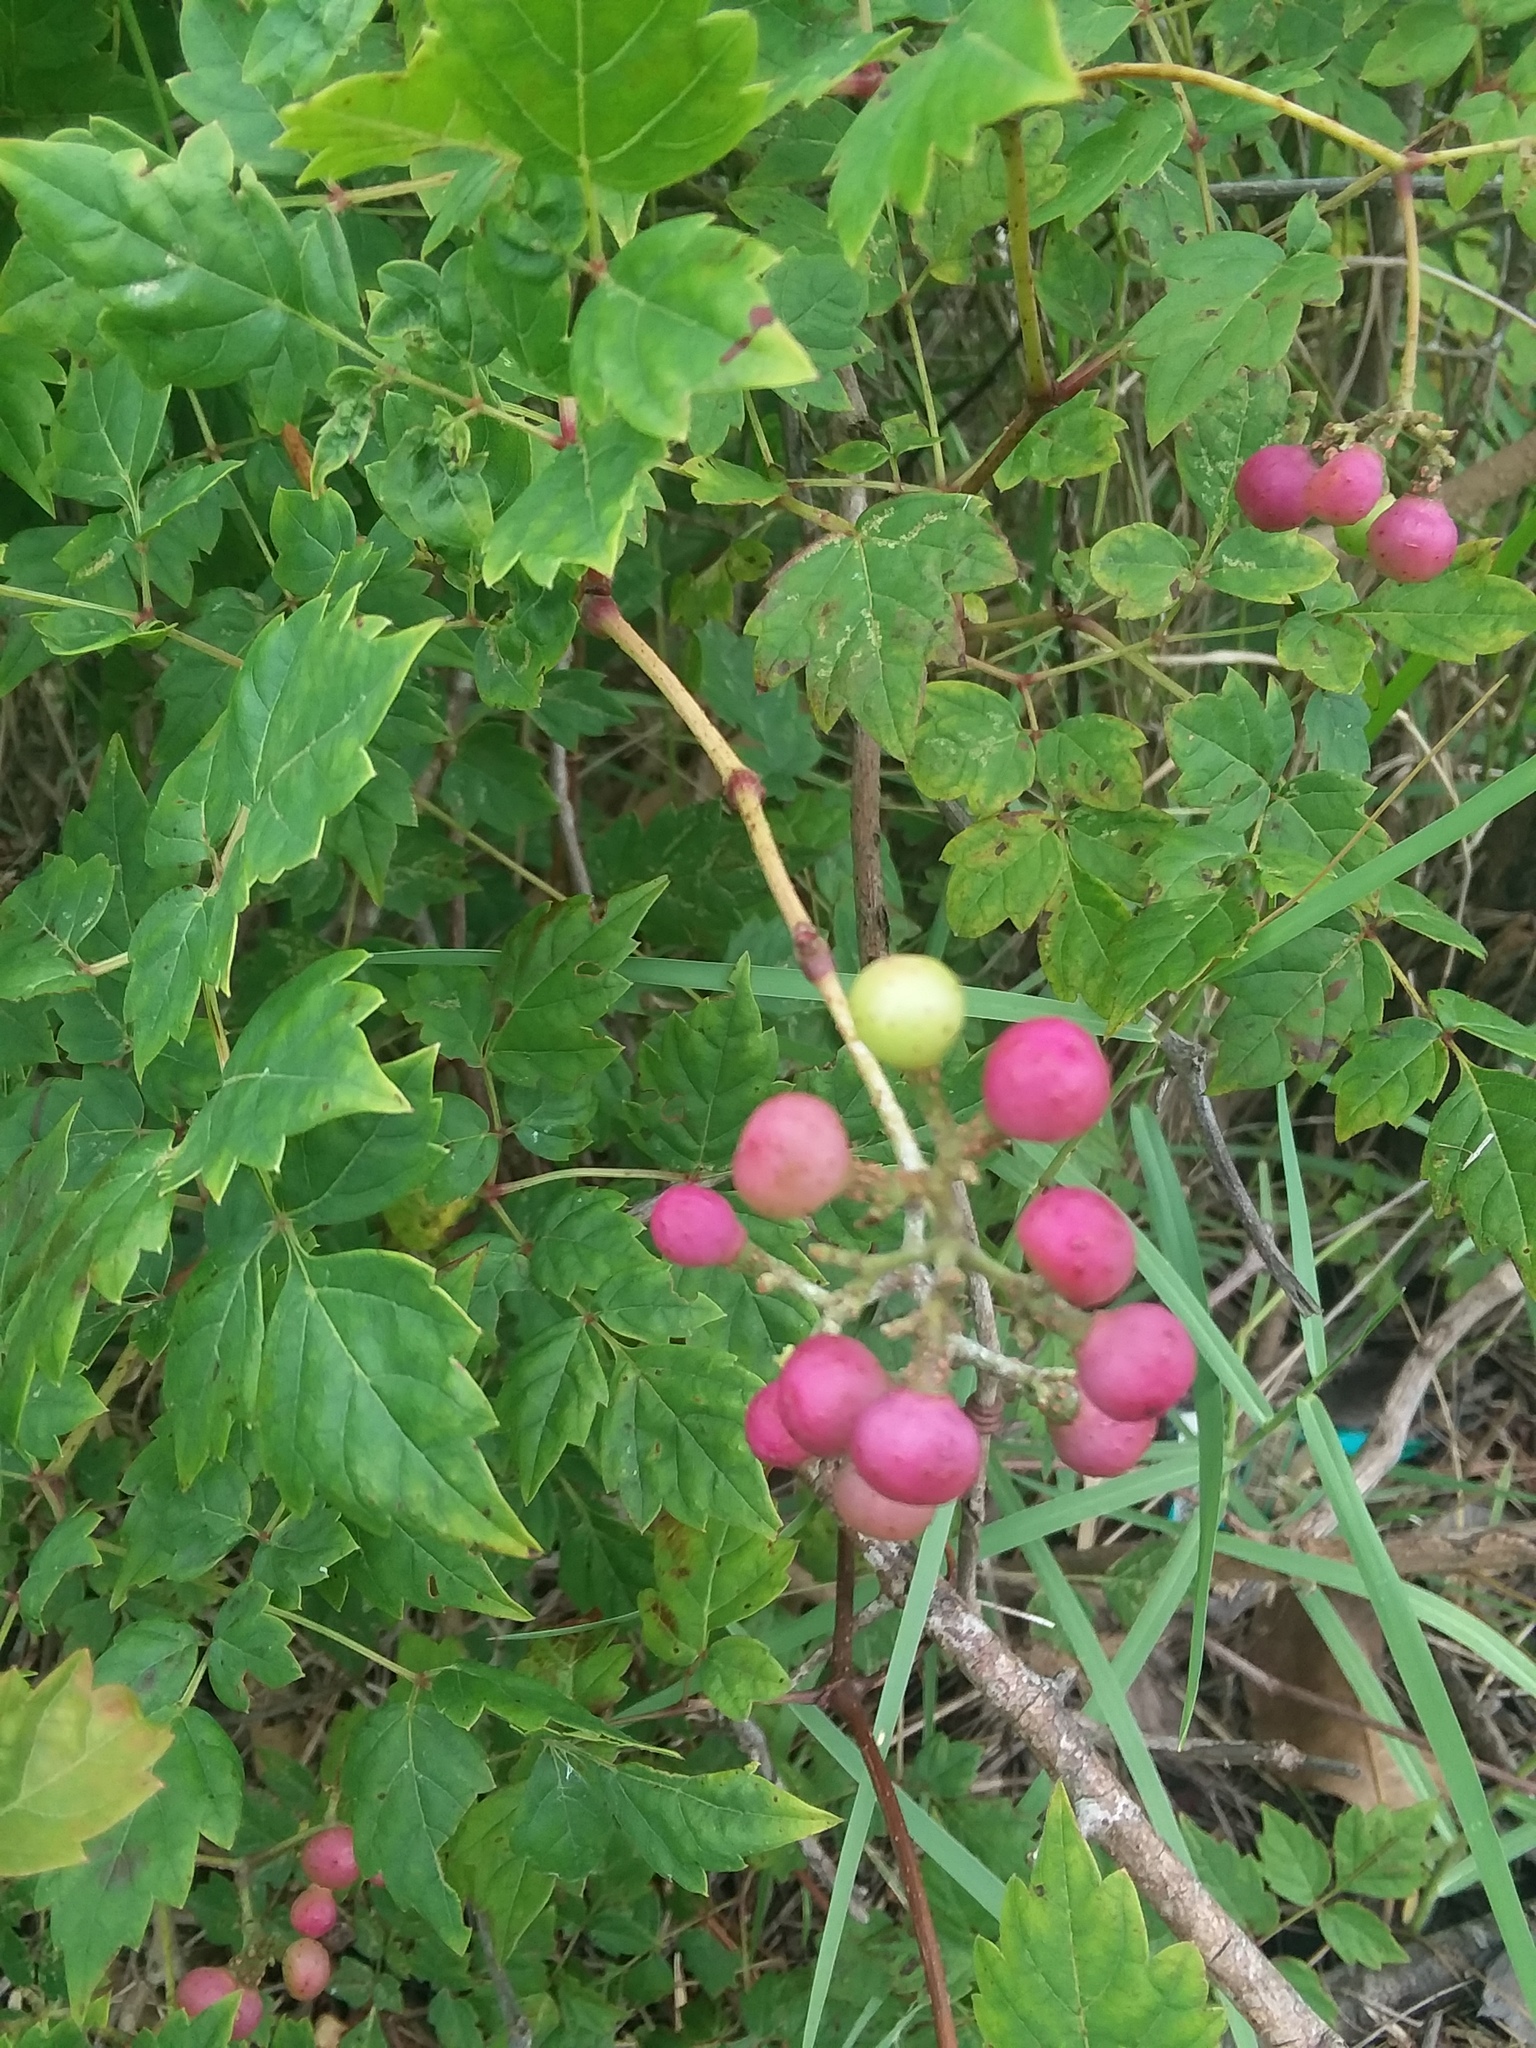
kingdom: Plantae
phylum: Tracheophyta
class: Magnoliopsida
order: Vitales
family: Vitaceae
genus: Nekemias
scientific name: Nekemias arborea
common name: Peppervine
